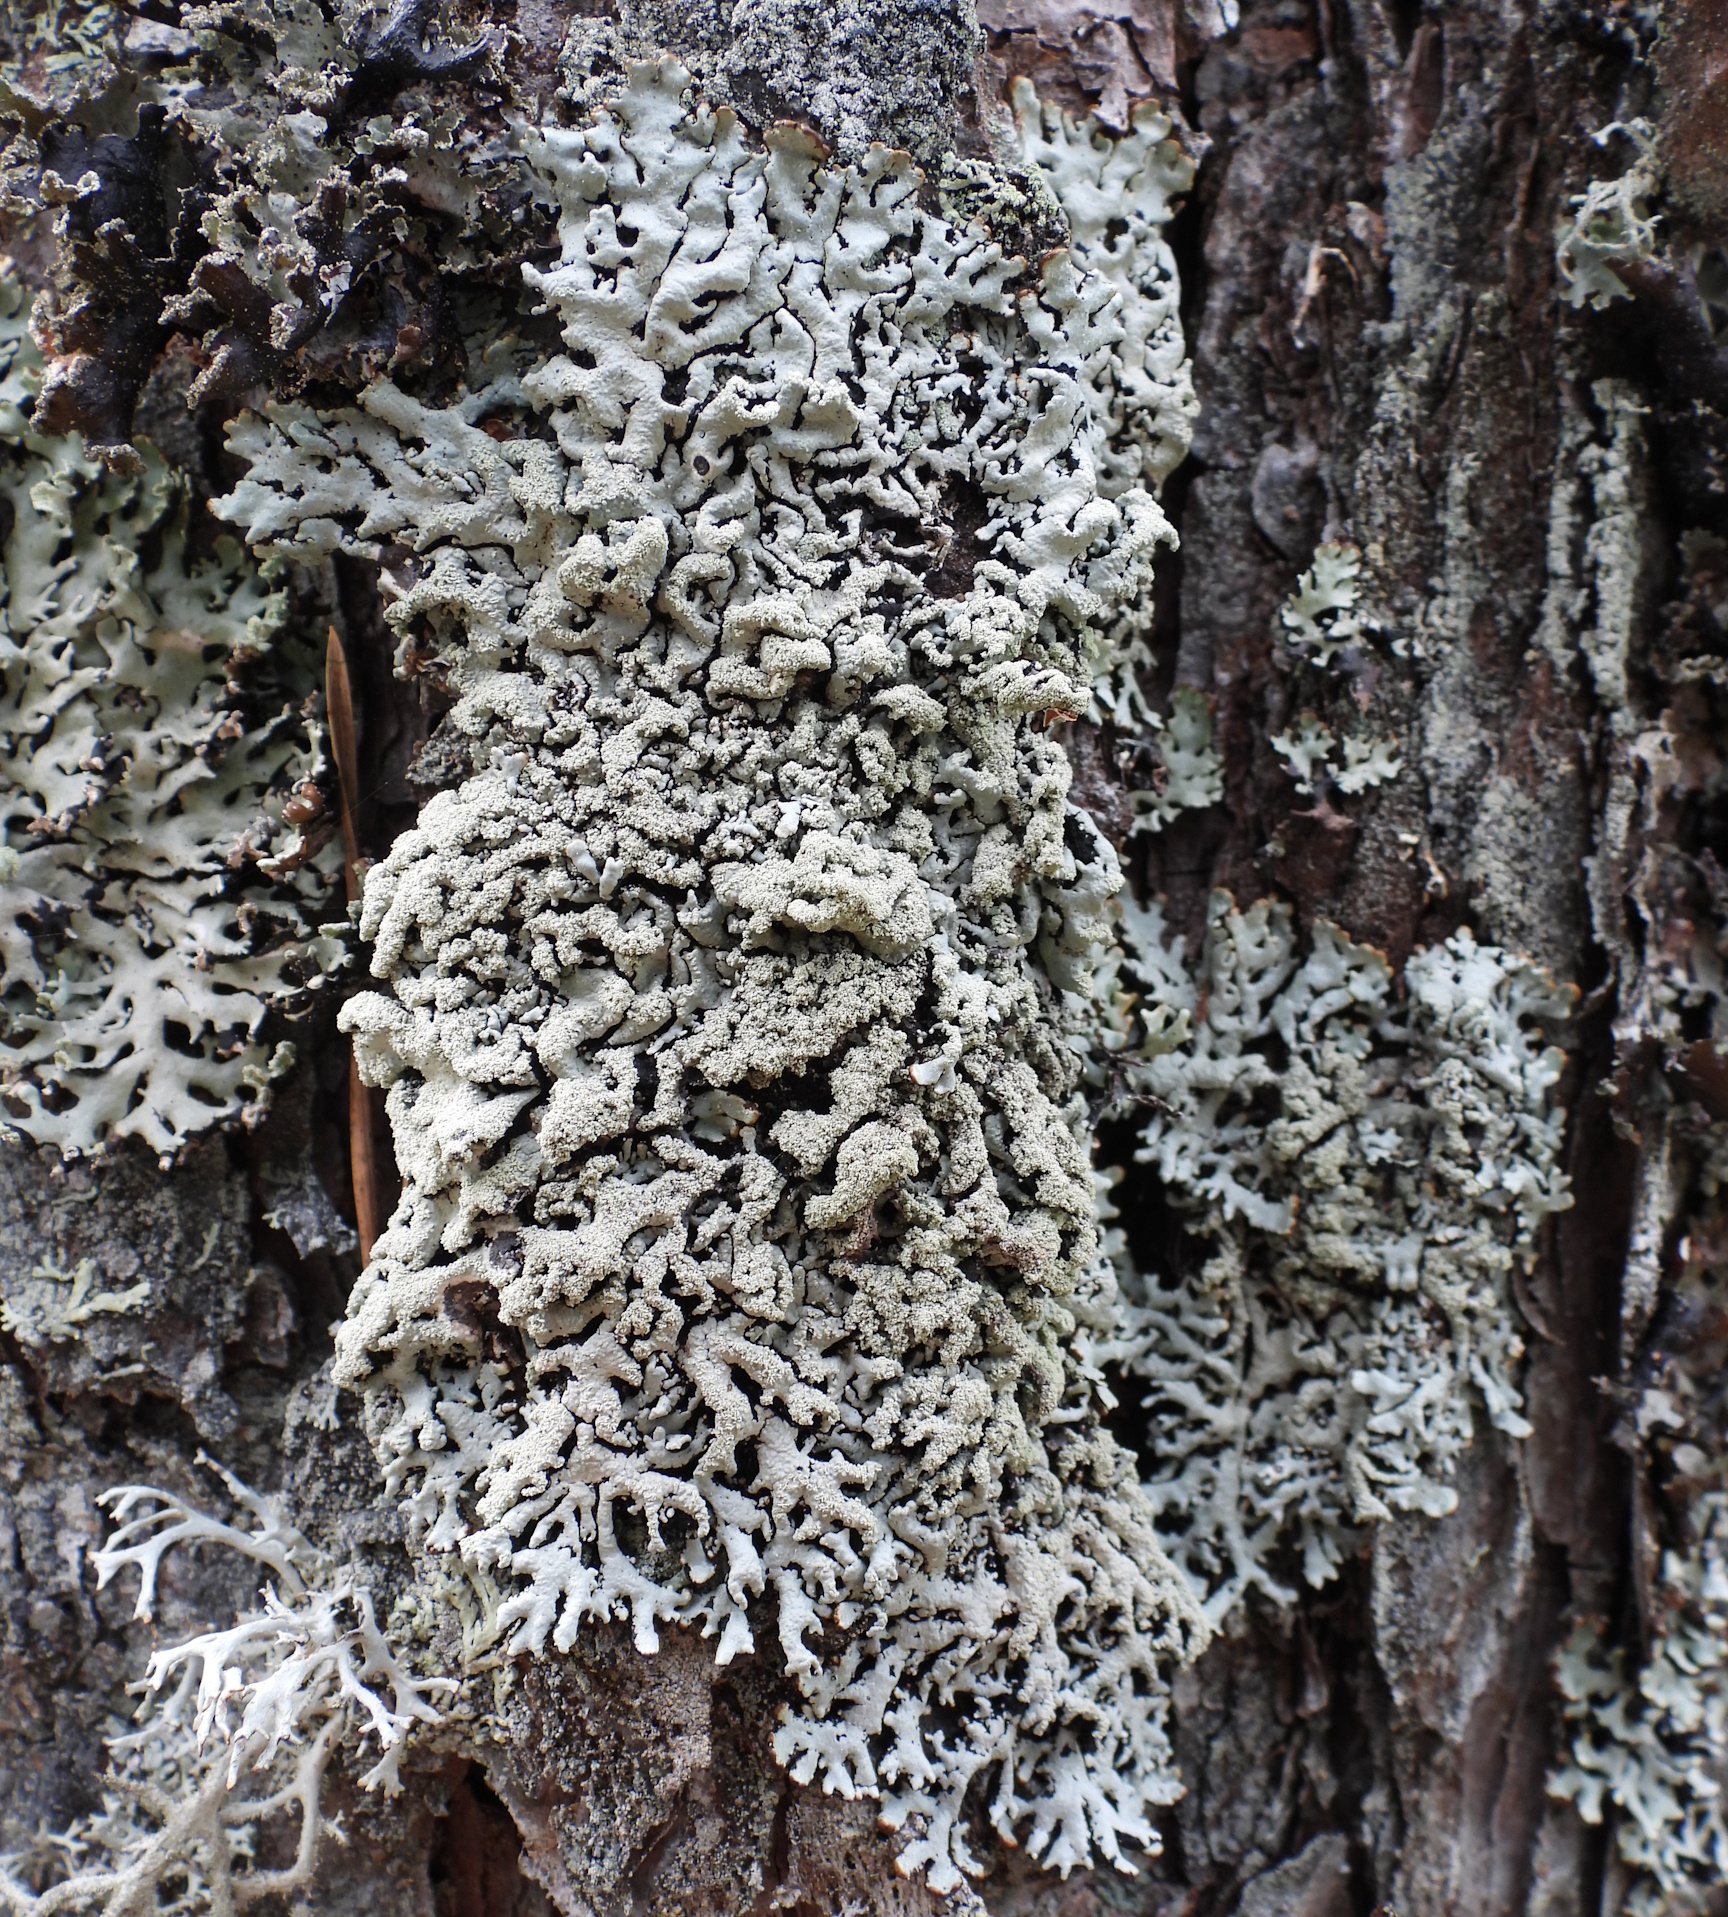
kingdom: Fungi
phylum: Ascomycota
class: Lecanoromycetes
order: Lecanorales
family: Parmeliaceae
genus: Hypogymnia
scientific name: Hypogymnia farinacea
